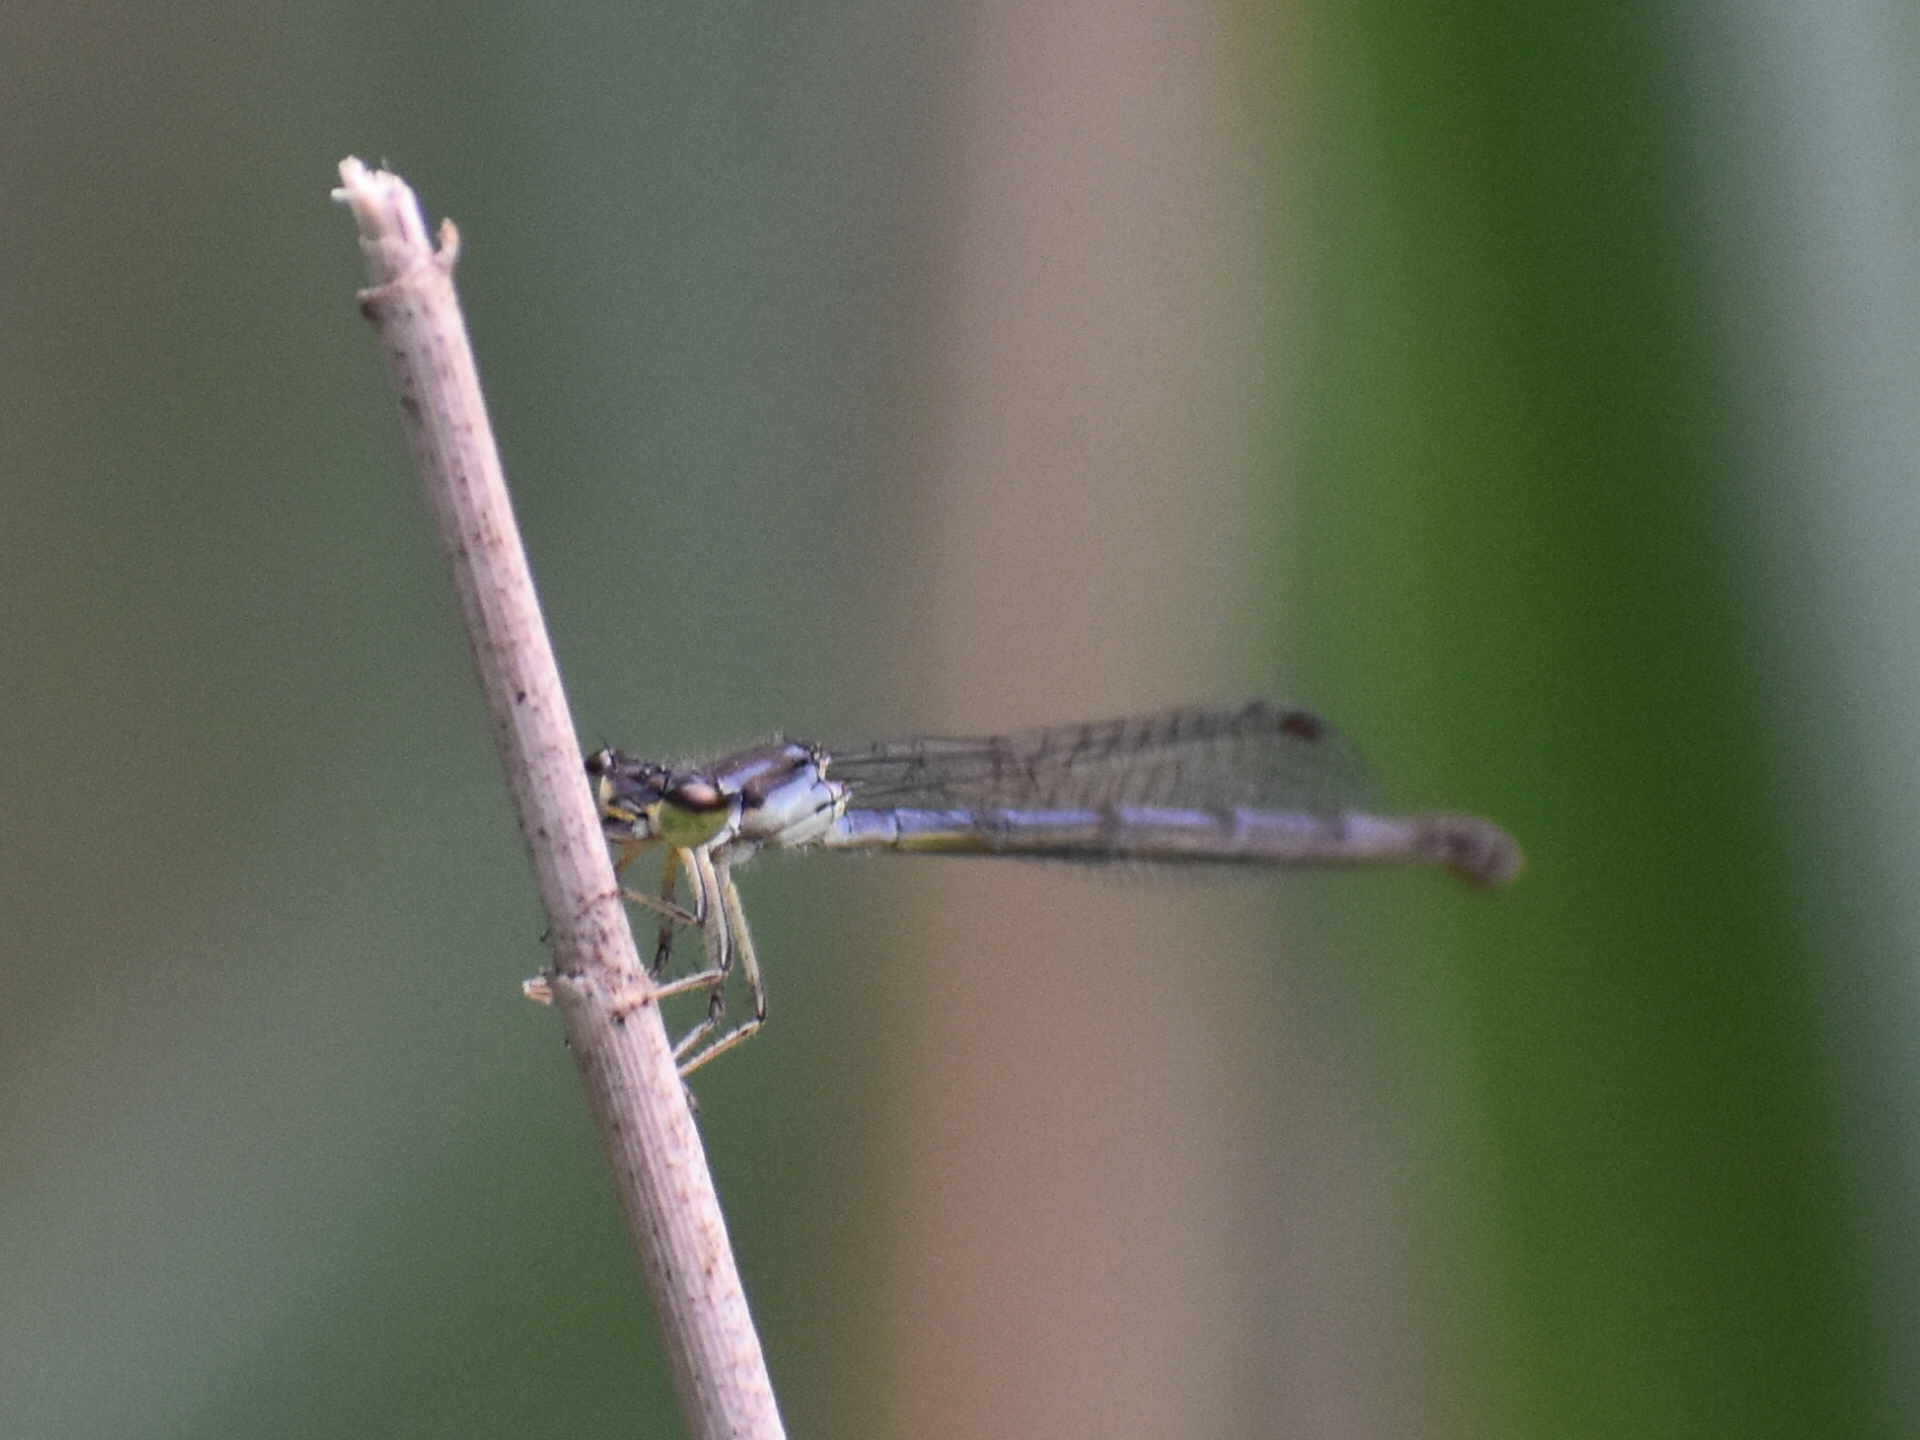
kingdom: Animalia
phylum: Arthropoda
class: Insecta
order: Odonata
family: Coenagrionidae
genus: Ischnura
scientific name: Ischnura posita
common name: Fragile forktail
